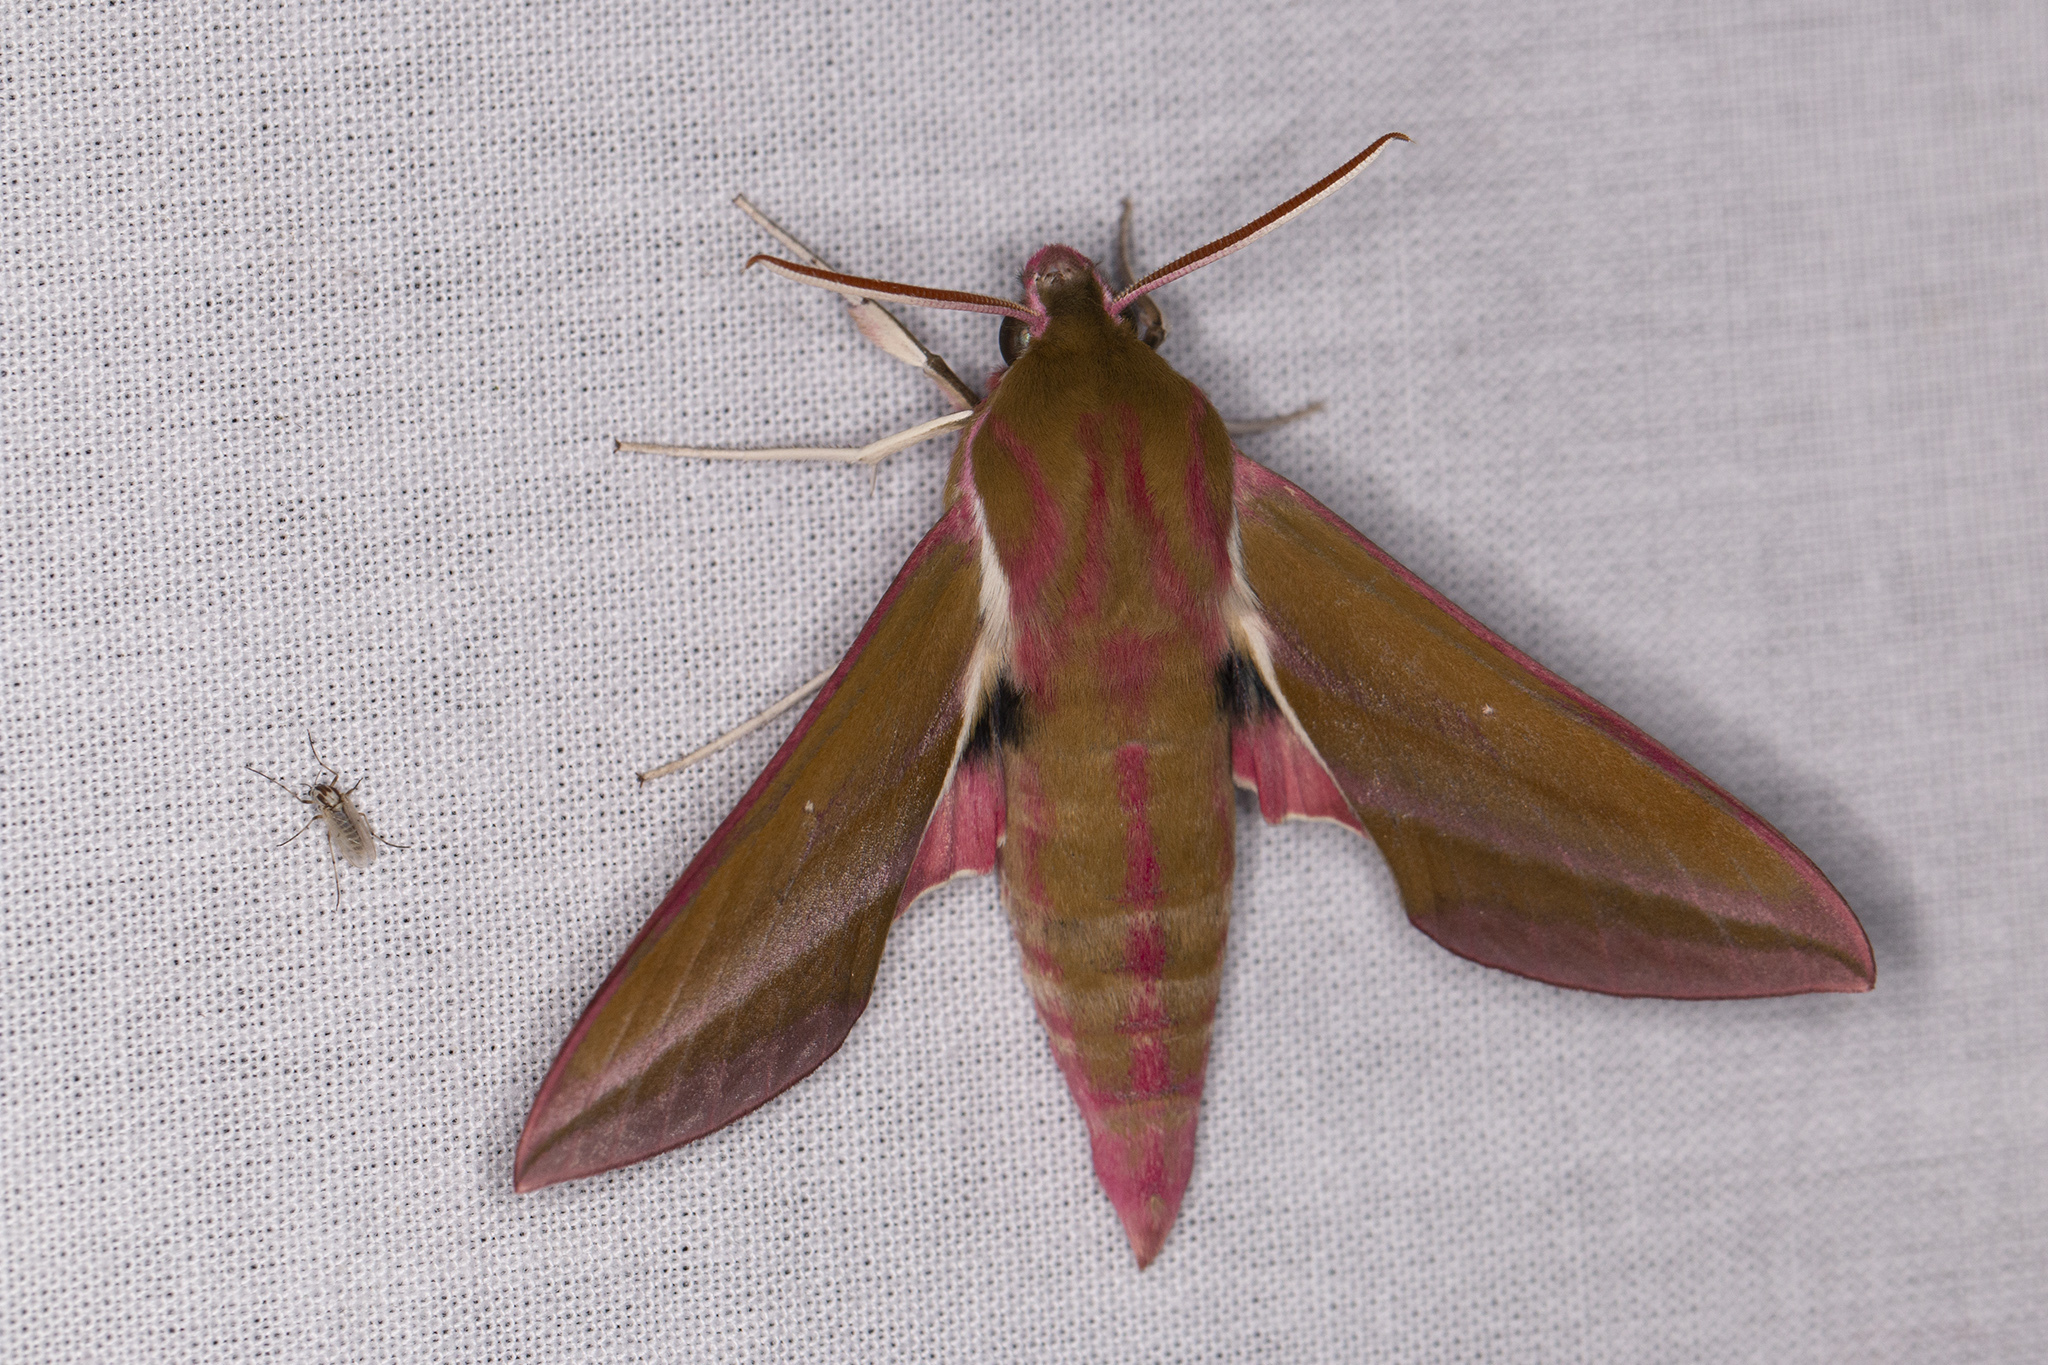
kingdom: Animalia
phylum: Arthropoda
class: Insecta
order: Lepidoptera
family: Sphingidae
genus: Deilephila
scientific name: Deilephila elpenor
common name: Elephant hawk-moth
